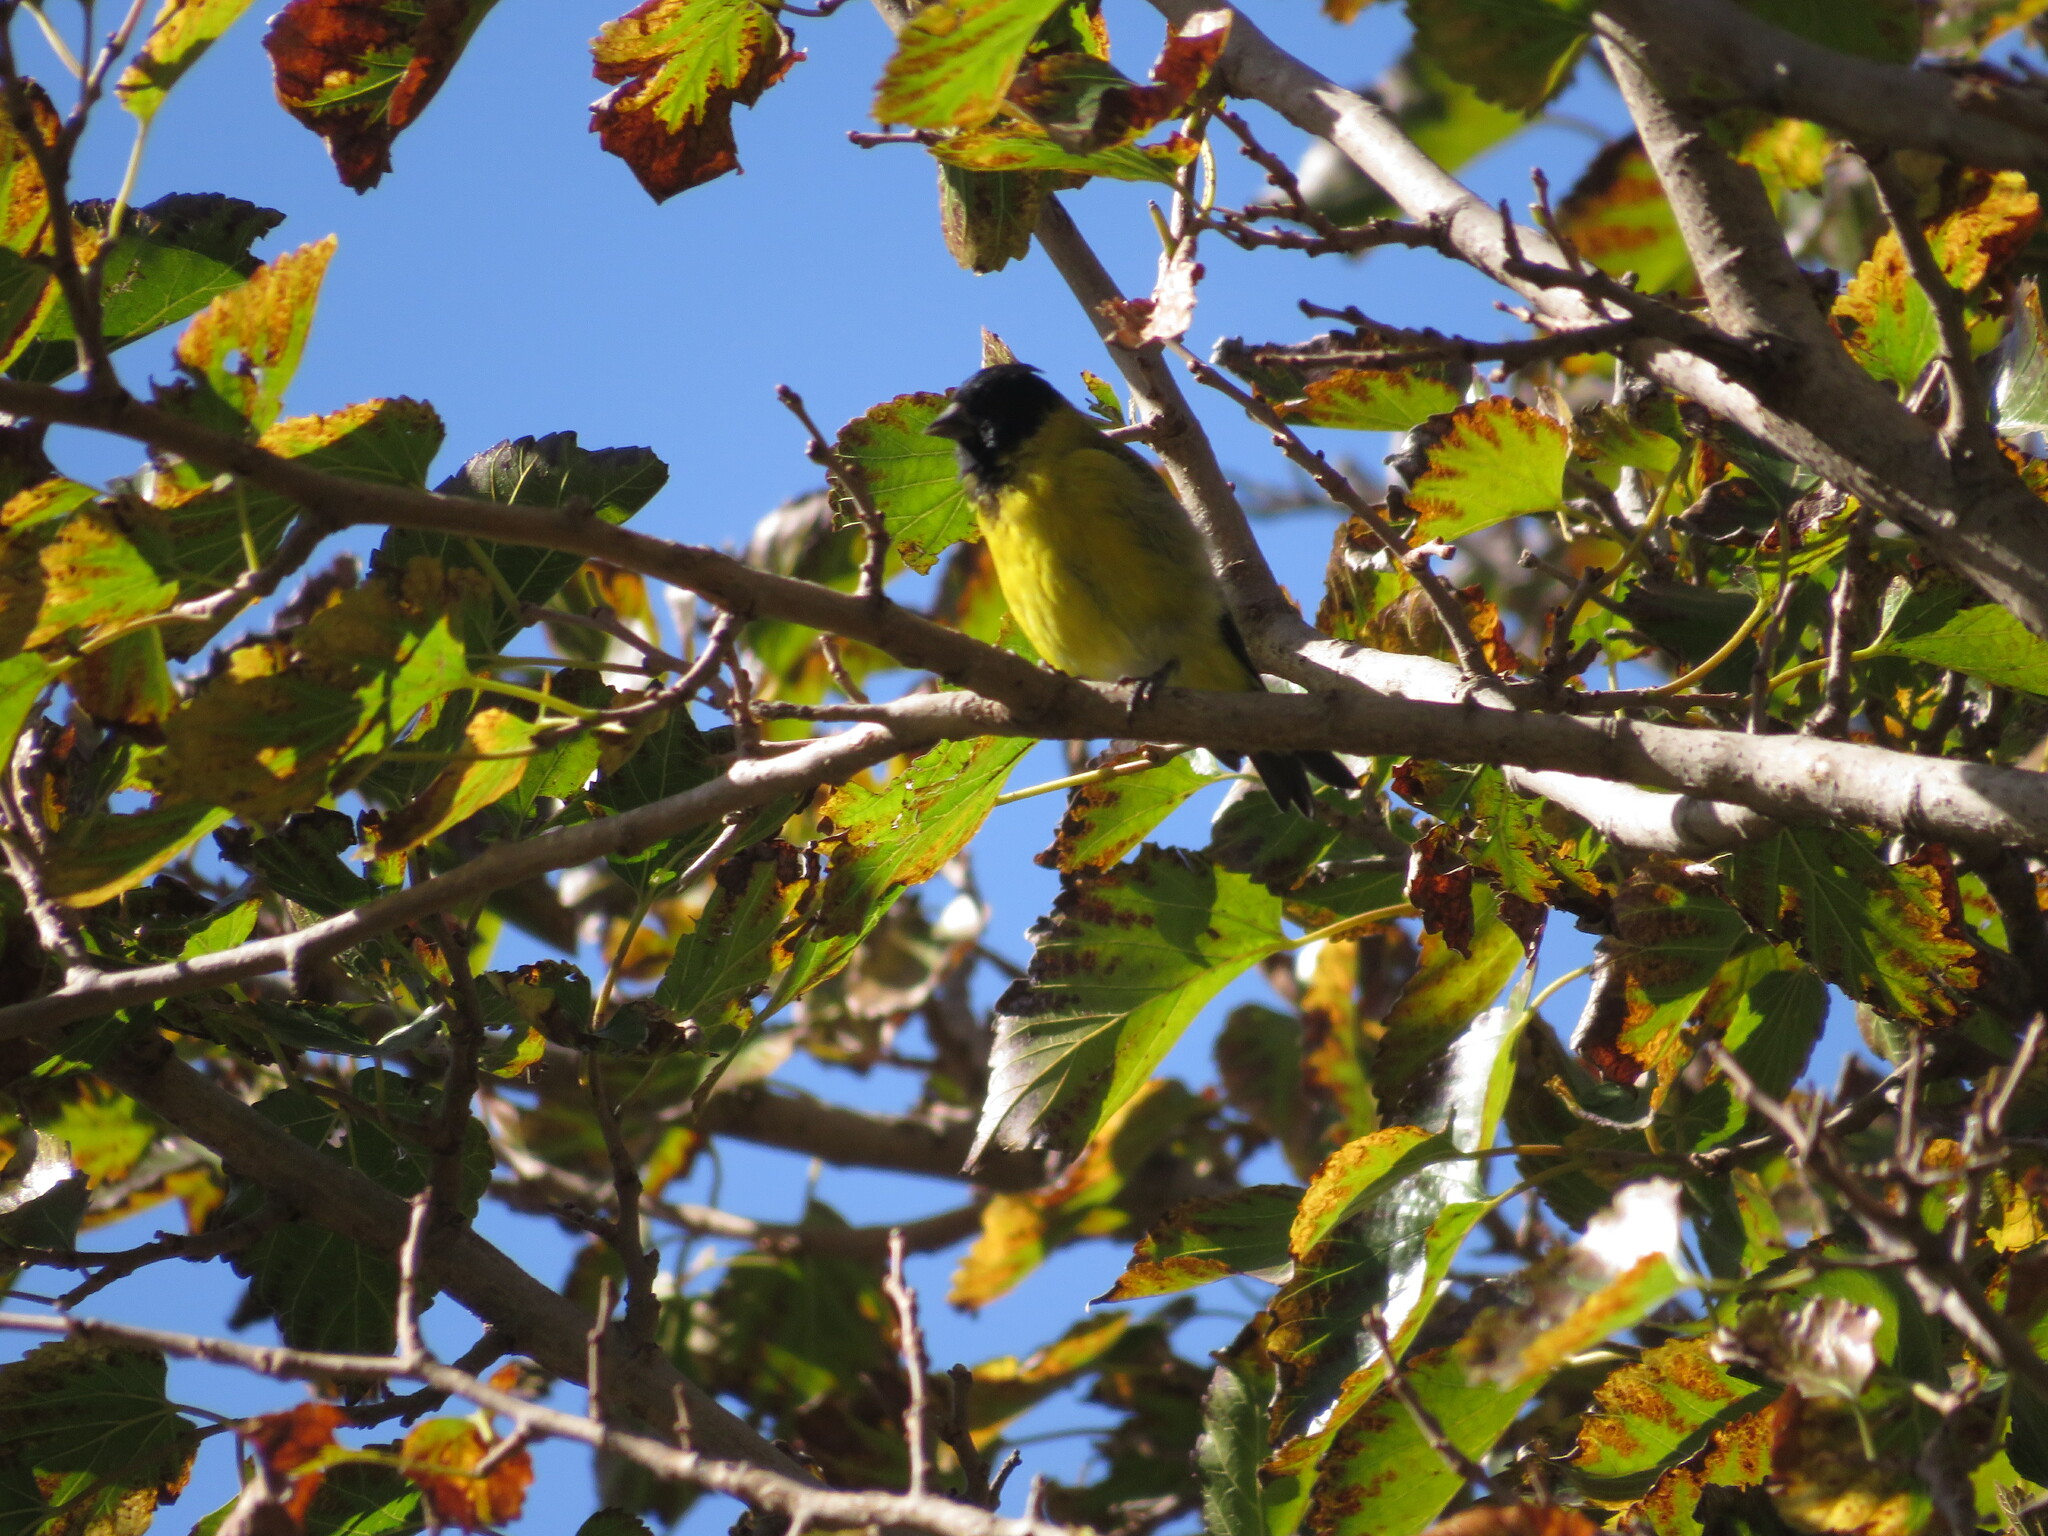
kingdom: Animalia
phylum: Chordata
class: Aves
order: Passeriformes
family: Fringillidae
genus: Spinus
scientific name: Spinus magellanicus
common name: Hooded siskin
